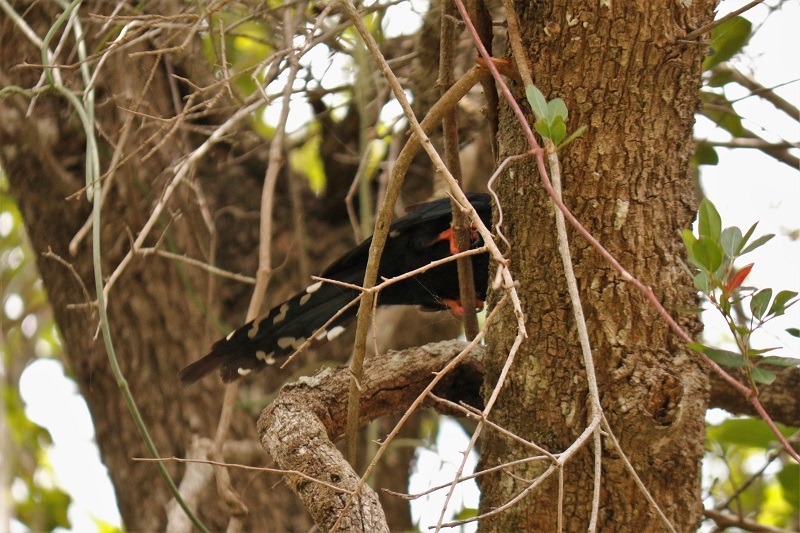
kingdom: Animalia
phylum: Chordata
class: Aves
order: Bucerotiformes
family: Phoeniculidae
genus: Phoeniculus
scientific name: Phoeniculus purpureus
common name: Green woodhoopoe
